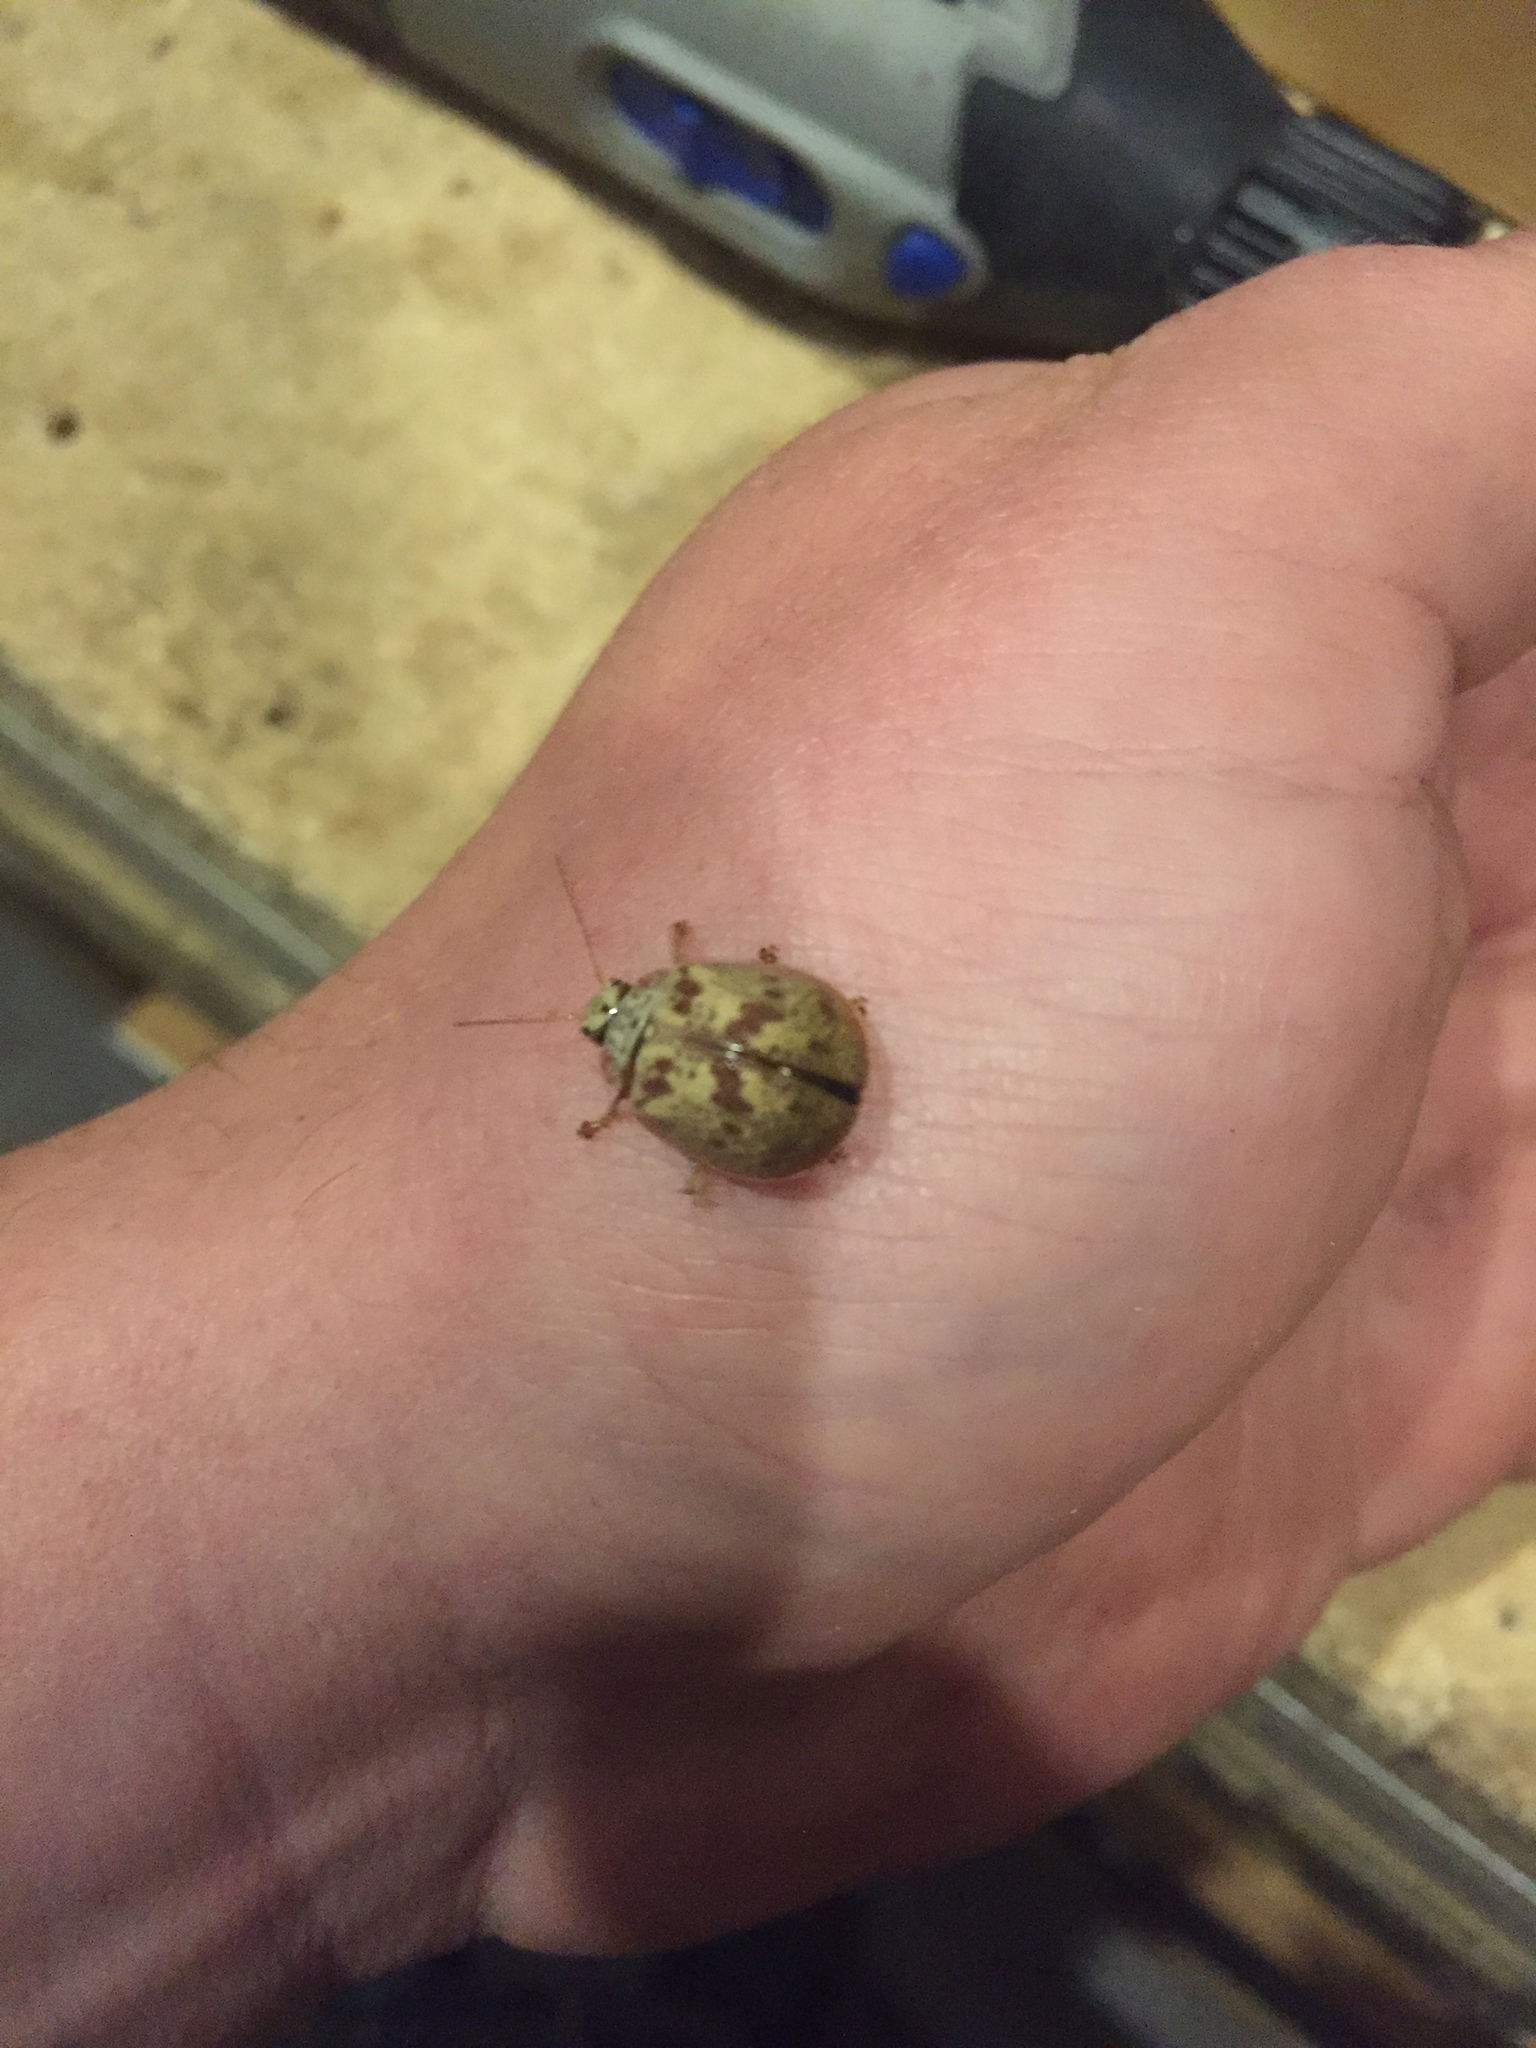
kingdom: Animalia
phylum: Arthropoda
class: Insecta
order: Coleoptera
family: Chrysomelidae
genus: Paropsis
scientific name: Paropsis charybdis
